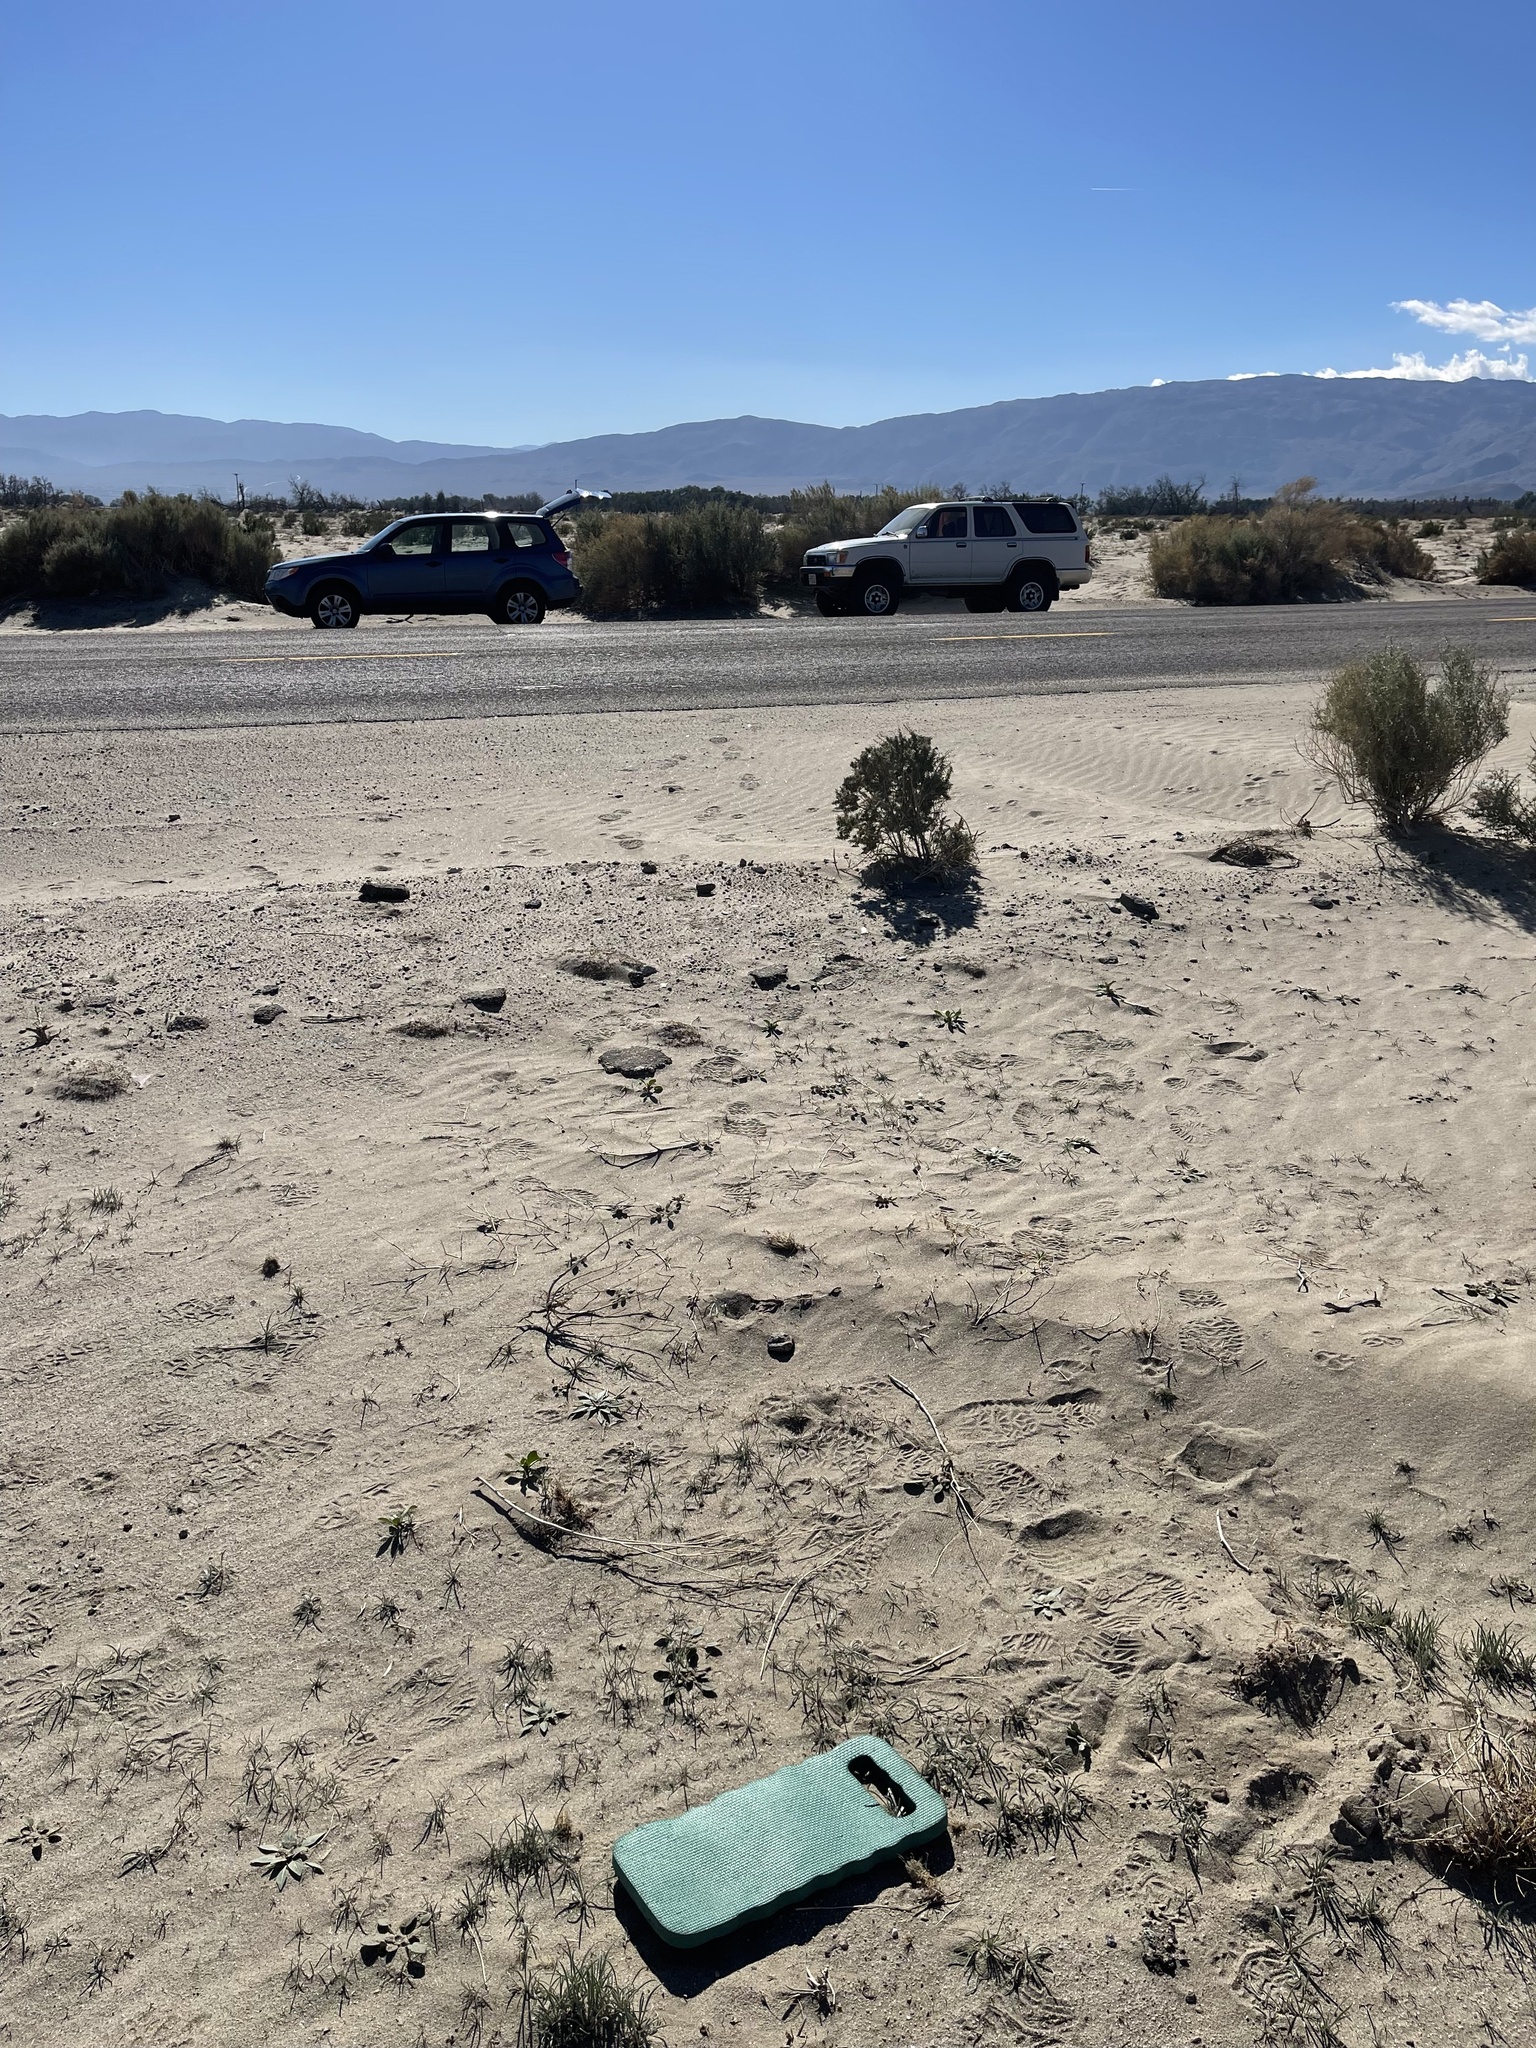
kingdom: Plantae
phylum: Tracheophyta
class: Magnoliopsida
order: Lamiales
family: Plantaginaceae
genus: Plantago
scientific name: Plantago ovata
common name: Blond plantain
